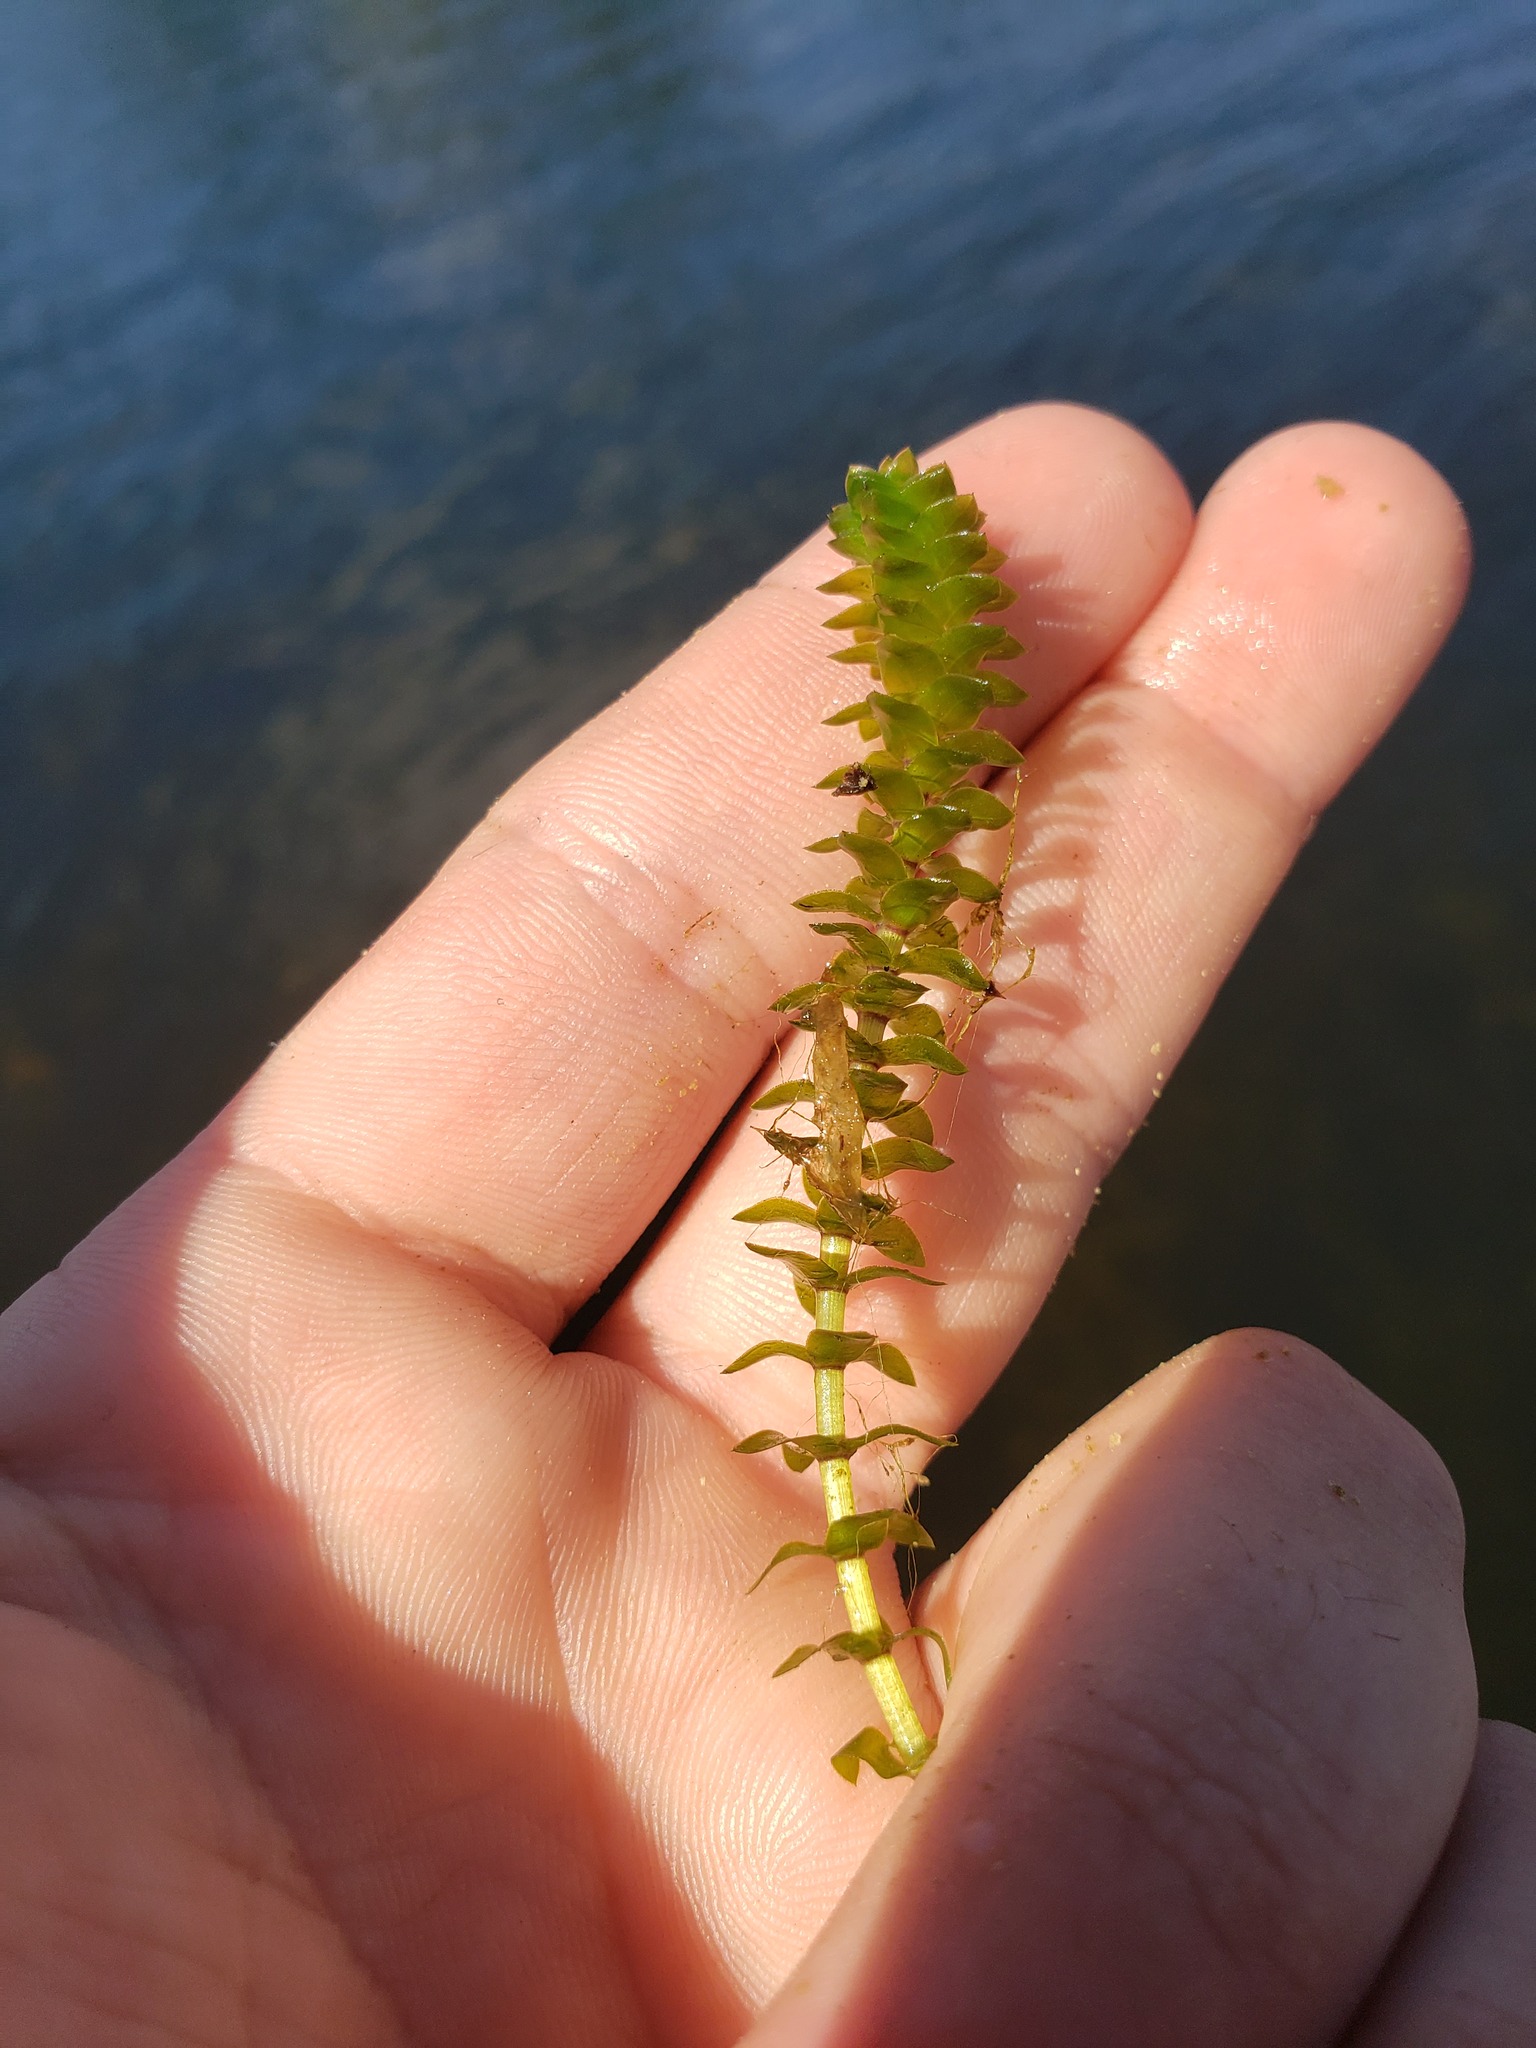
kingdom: Plantae
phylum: Tracheophyta
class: Liliopsida
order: Alismatales
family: Hydrocharitaceae
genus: Elodea
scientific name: Elodea canadensis
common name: Canadian waterweed
